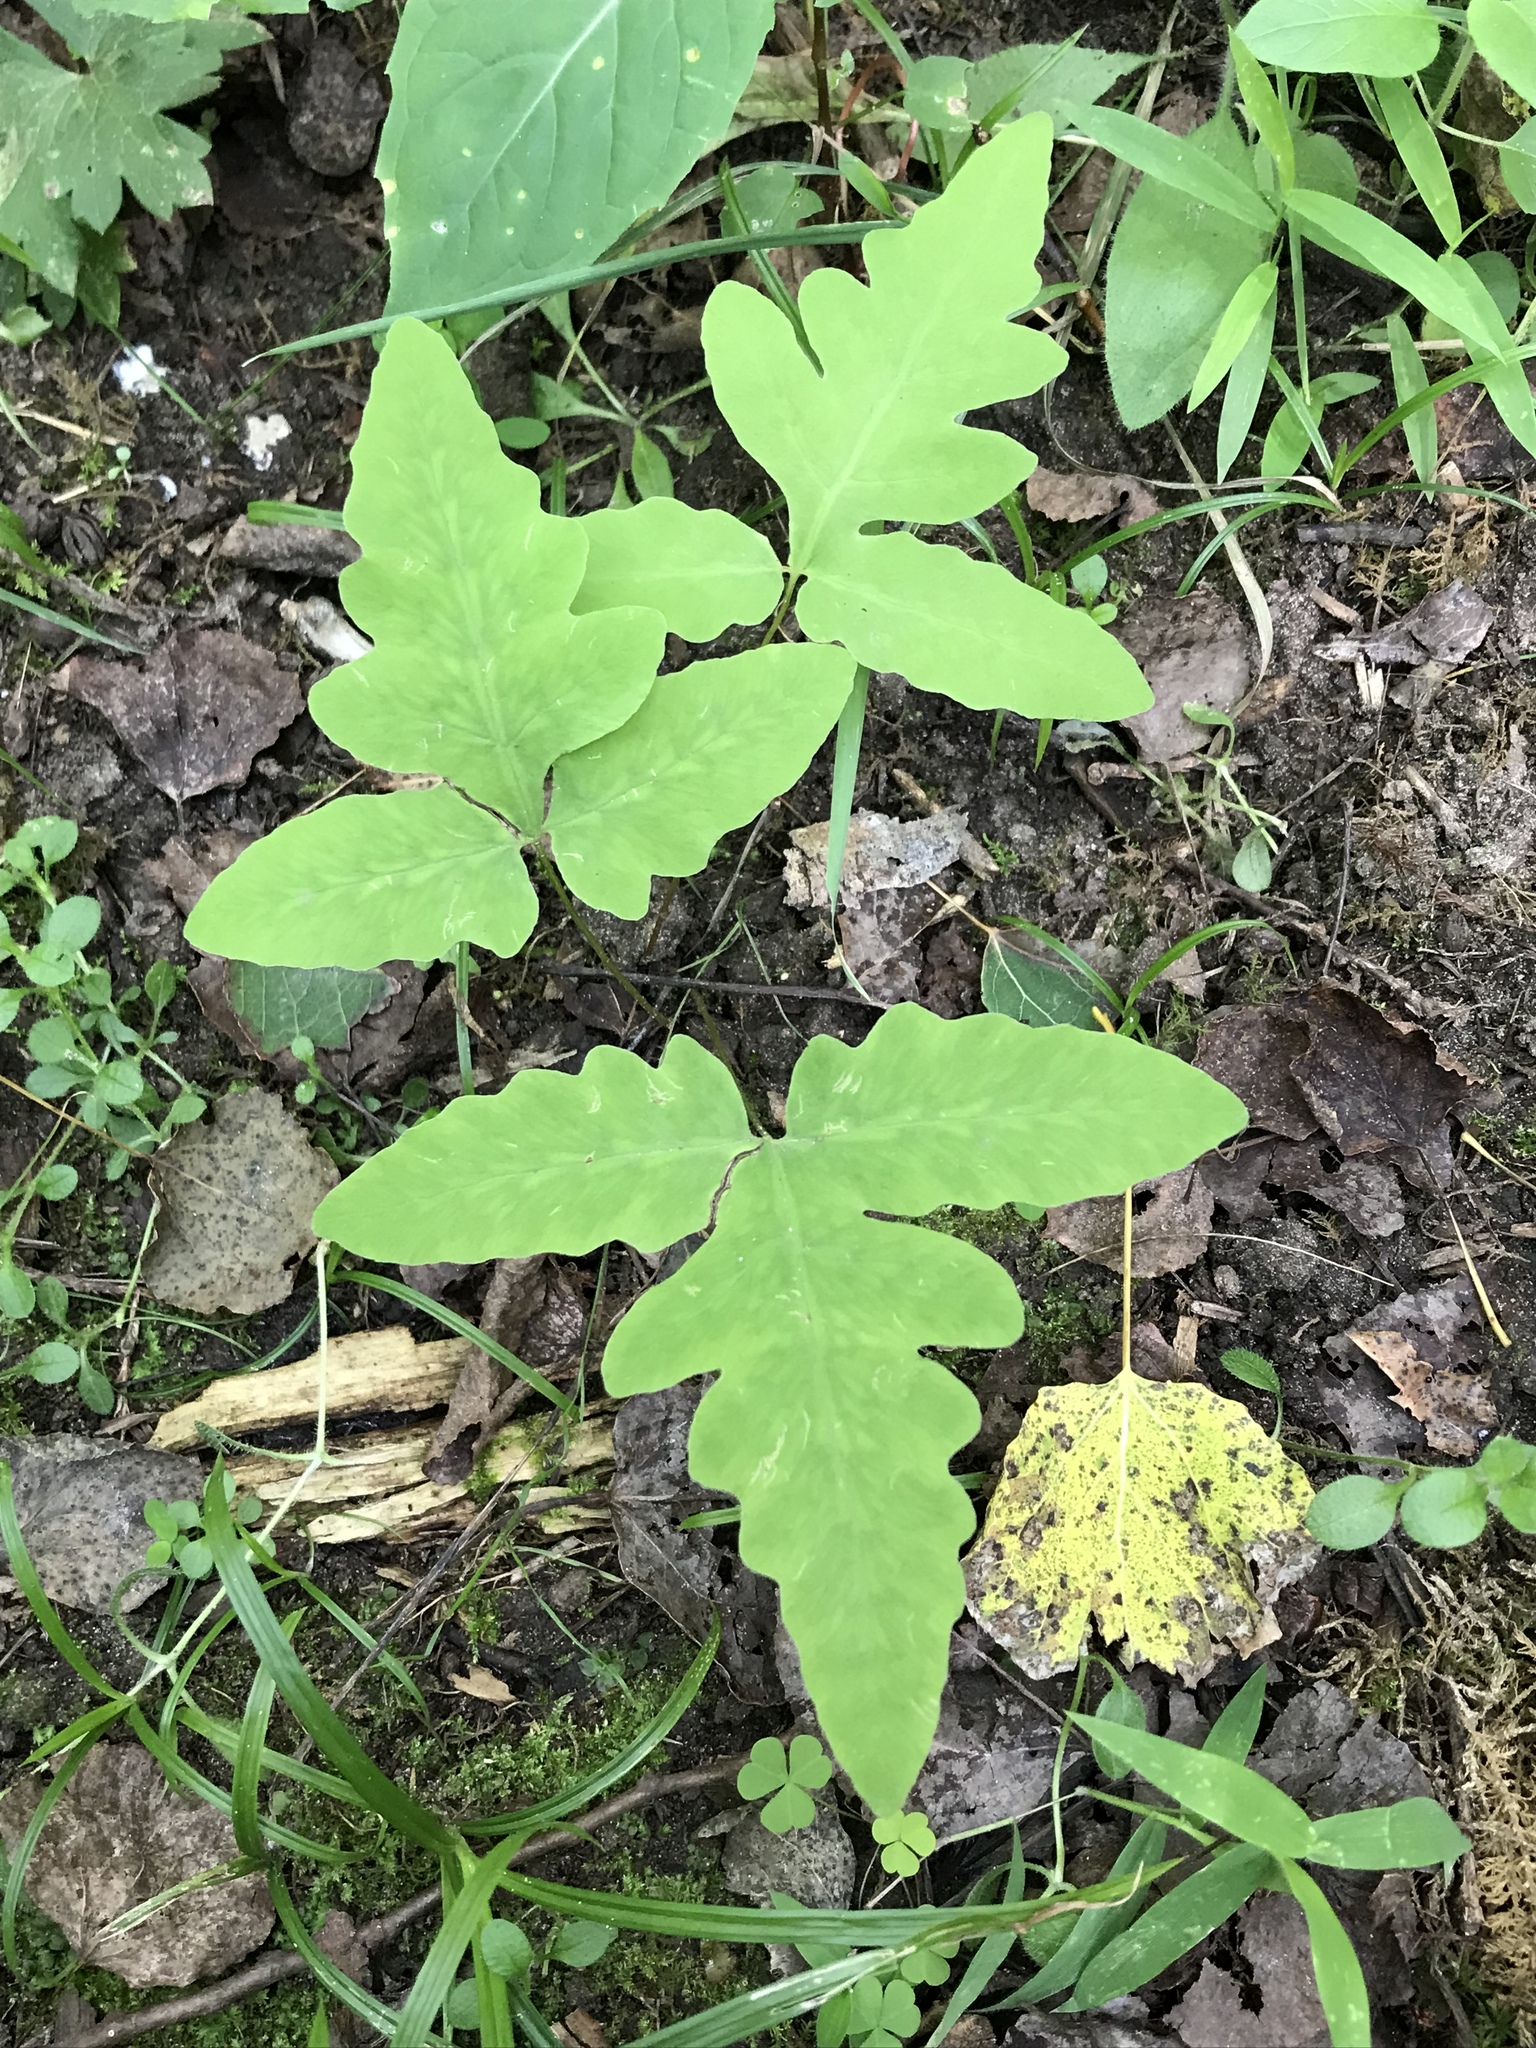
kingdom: Plantae
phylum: Tracheophyta
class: Polypodiopsida
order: Polypodiales
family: Onocleaceae
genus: Onoclea
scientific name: Onoclea sensibilis
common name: Sensitive fern
